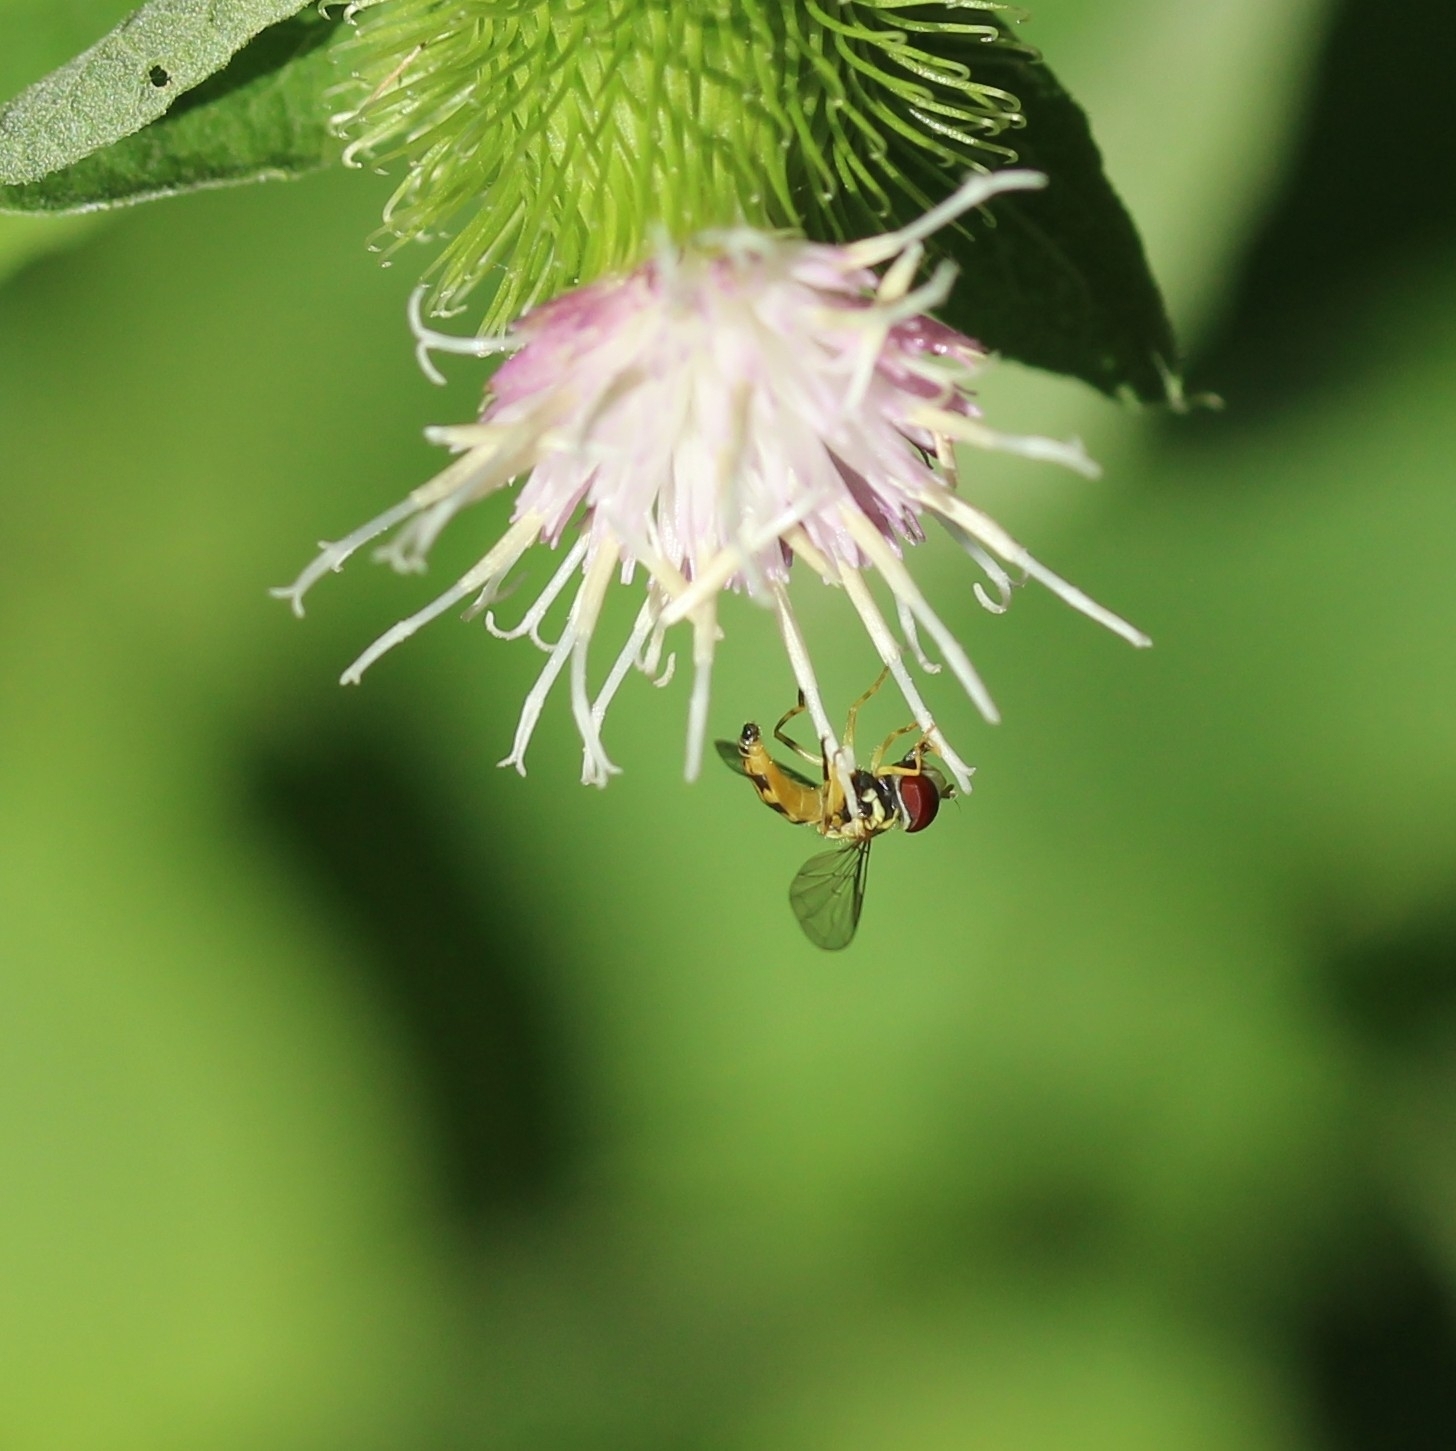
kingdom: Animalia
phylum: Arthropoda
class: Insecta
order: Diptera
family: Syrphidae
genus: Toxomerus
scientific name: Toxomerus geminatus
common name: Eastern calligrapher
